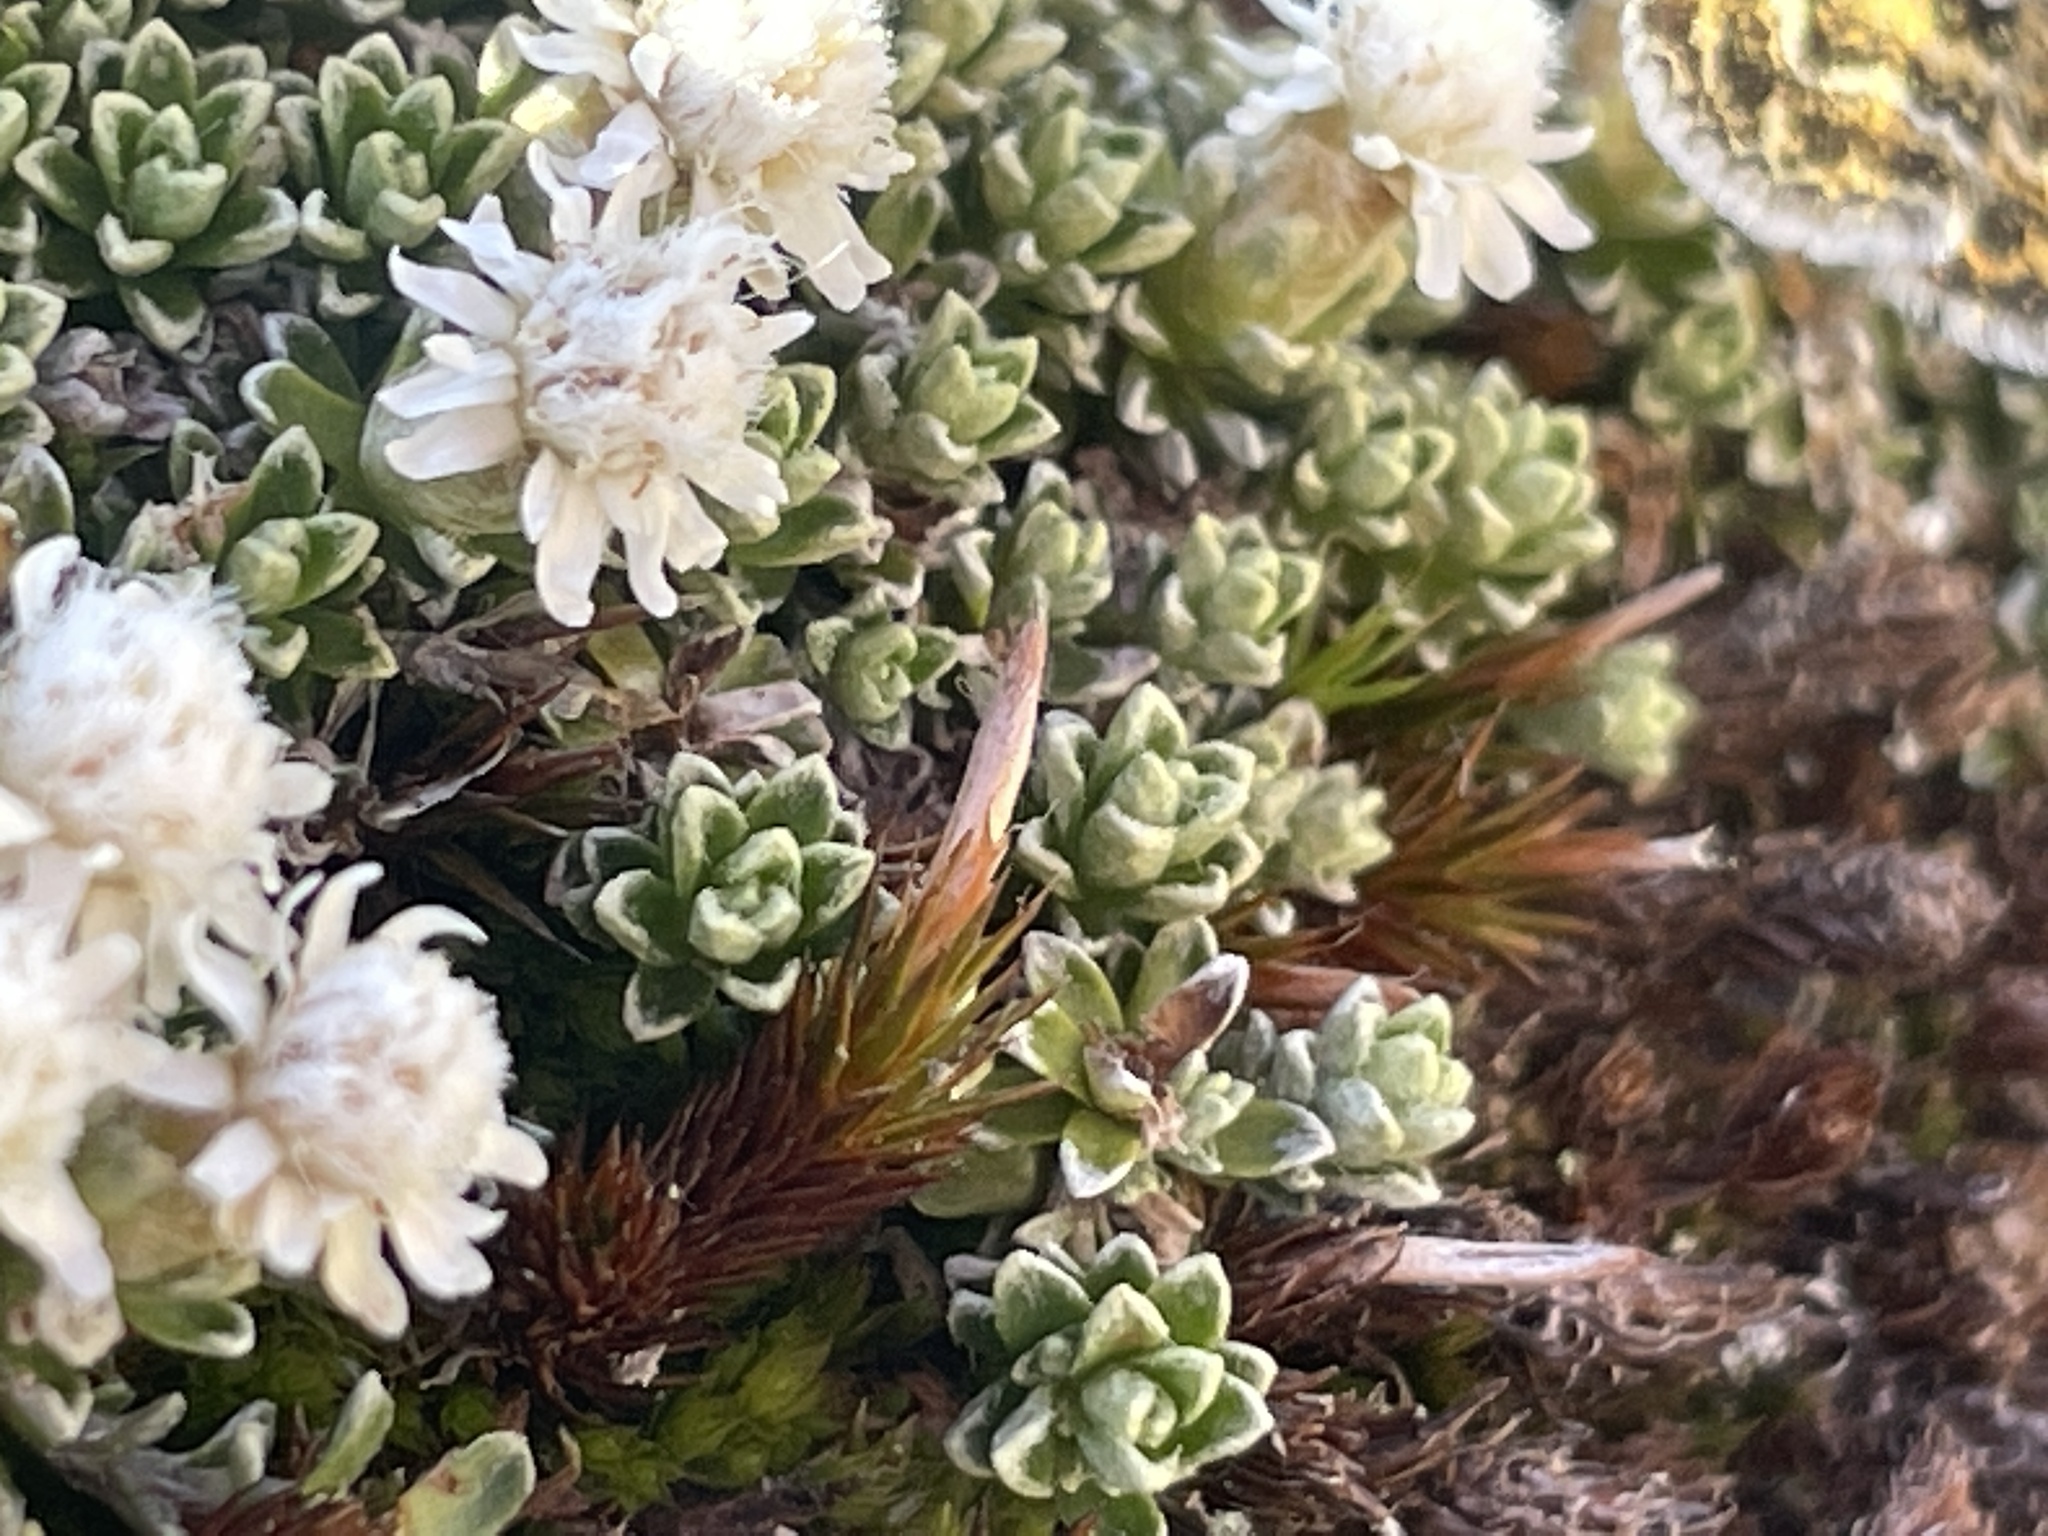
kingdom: Plantae
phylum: Tracheophyta
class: Magnoliopsida
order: Asterales
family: Asteraceae
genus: Raoulia
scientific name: Raoulia subsericea
